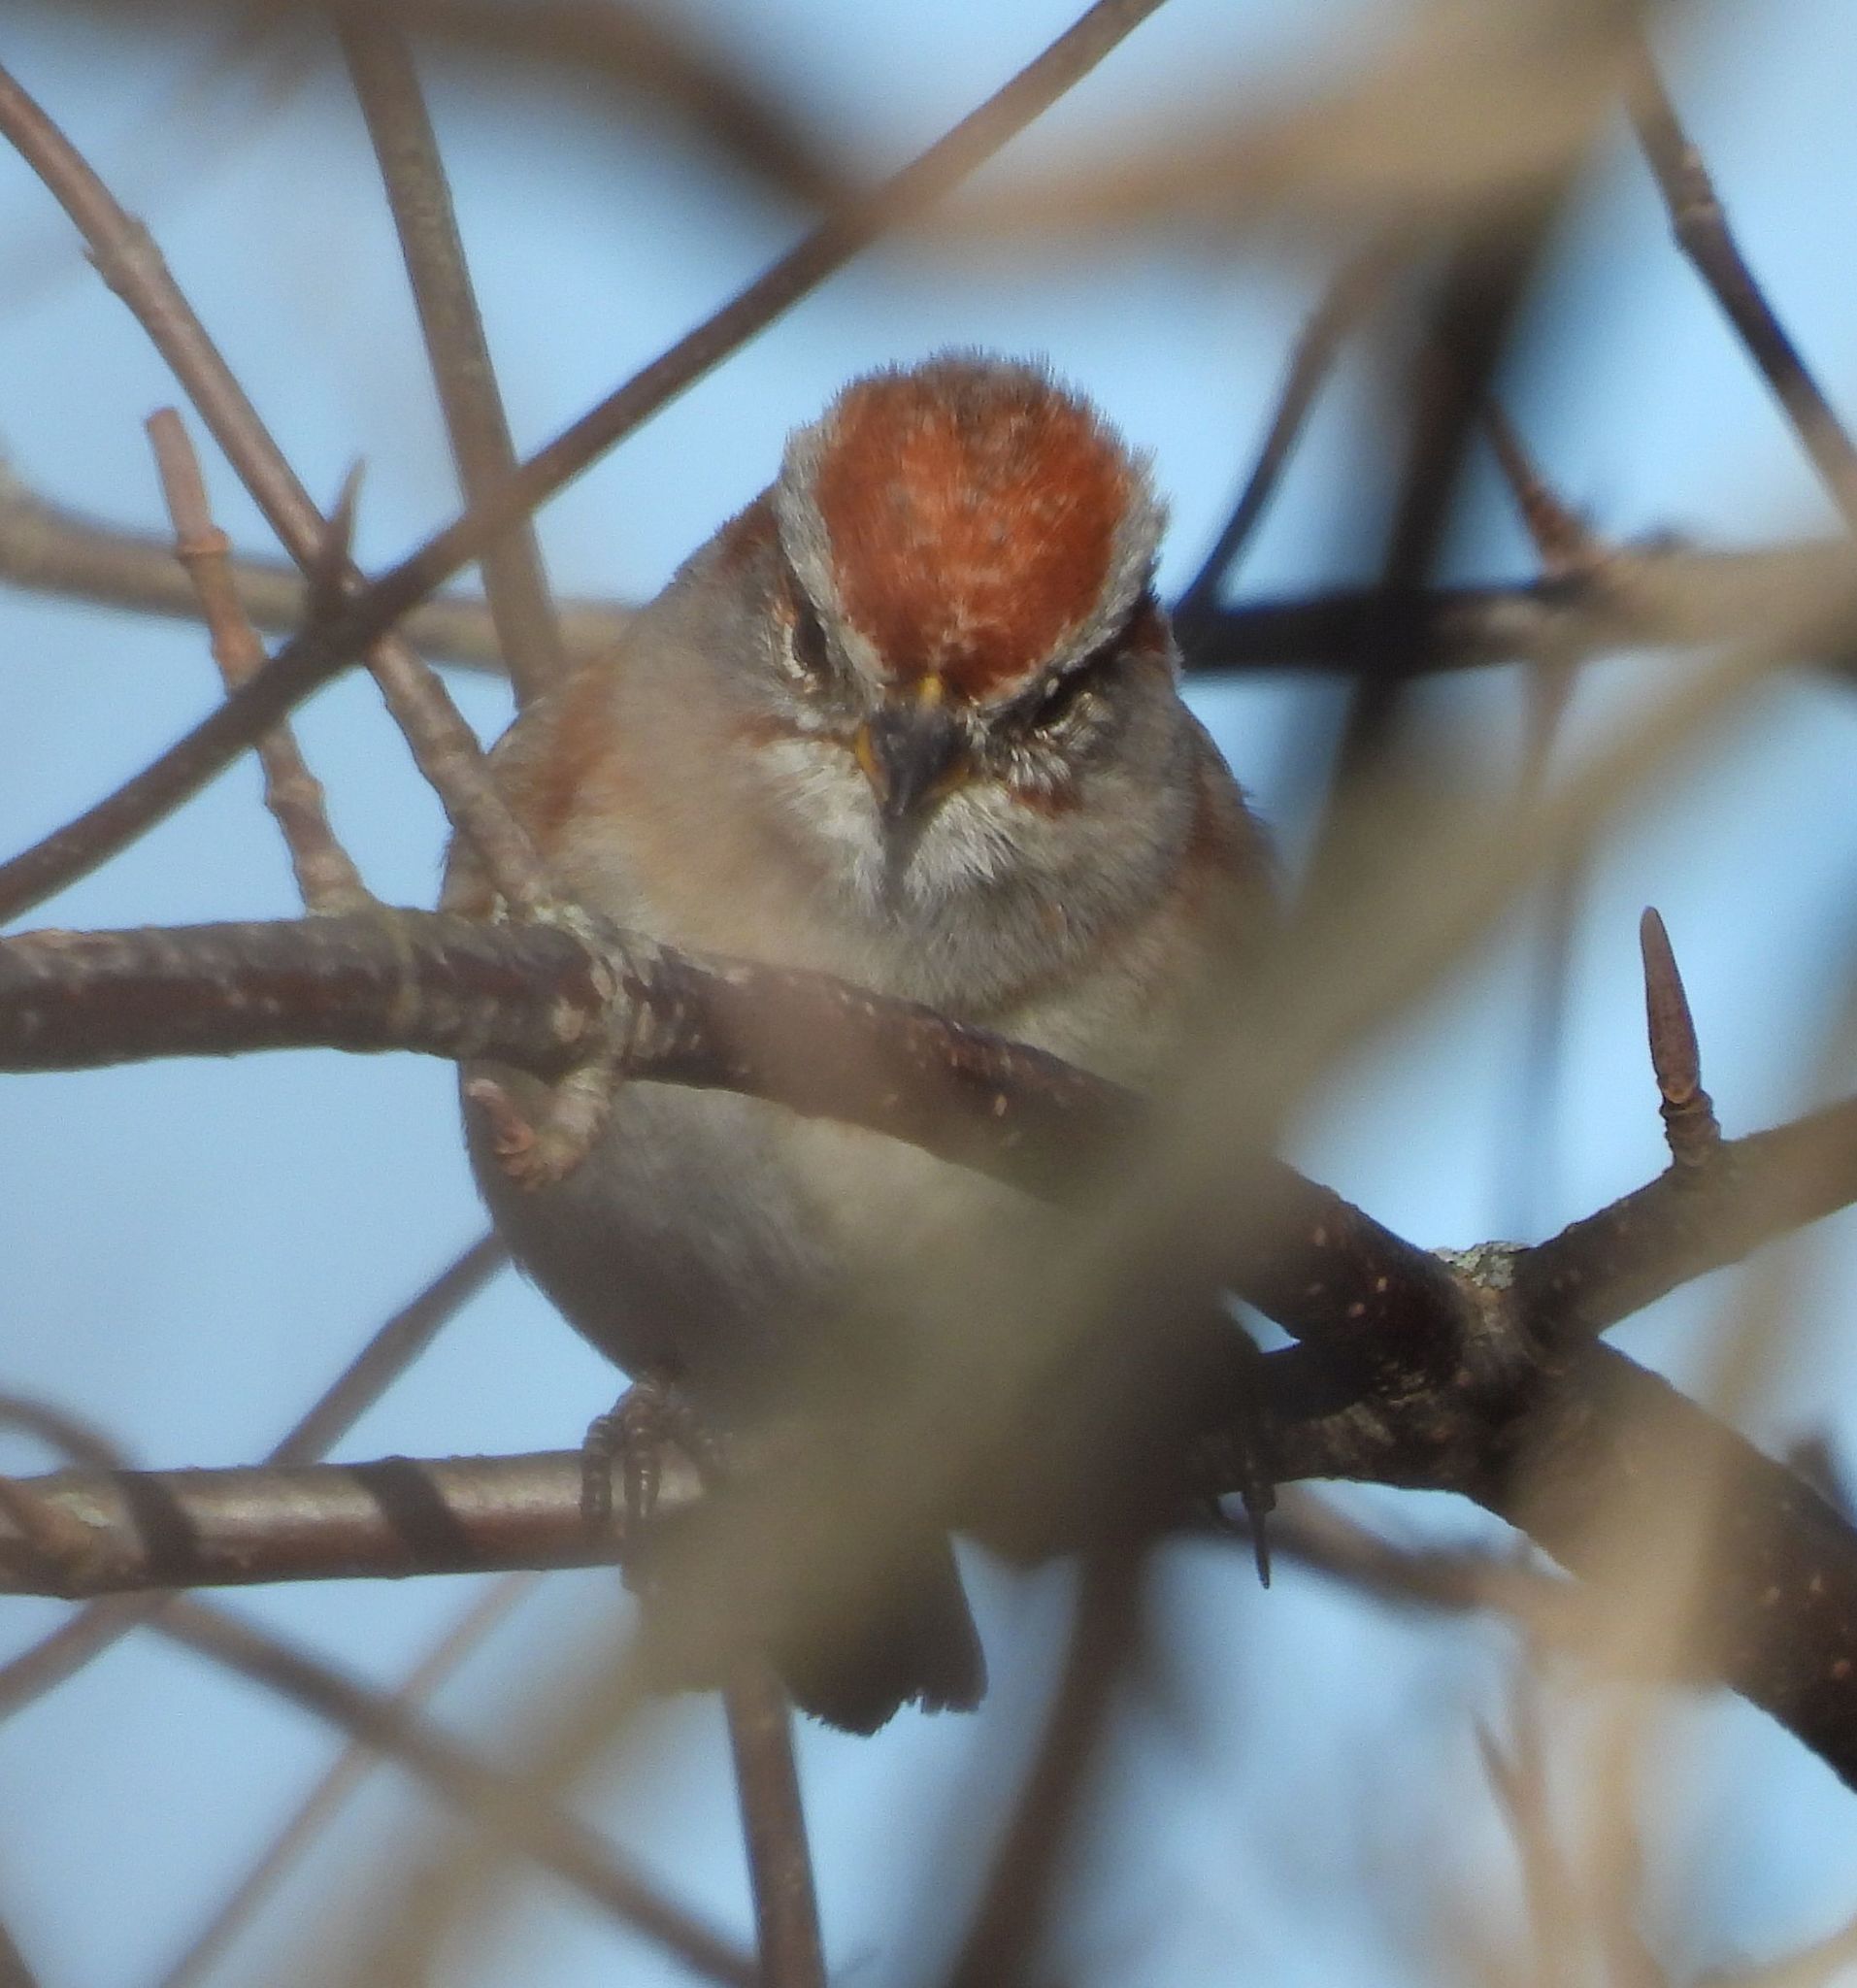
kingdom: Animalia
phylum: Chordata
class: Aves
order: Passeriformes
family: Passerellidae
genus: Spizelloides
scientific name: Spizelloides arborea
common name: American tree sparrow
